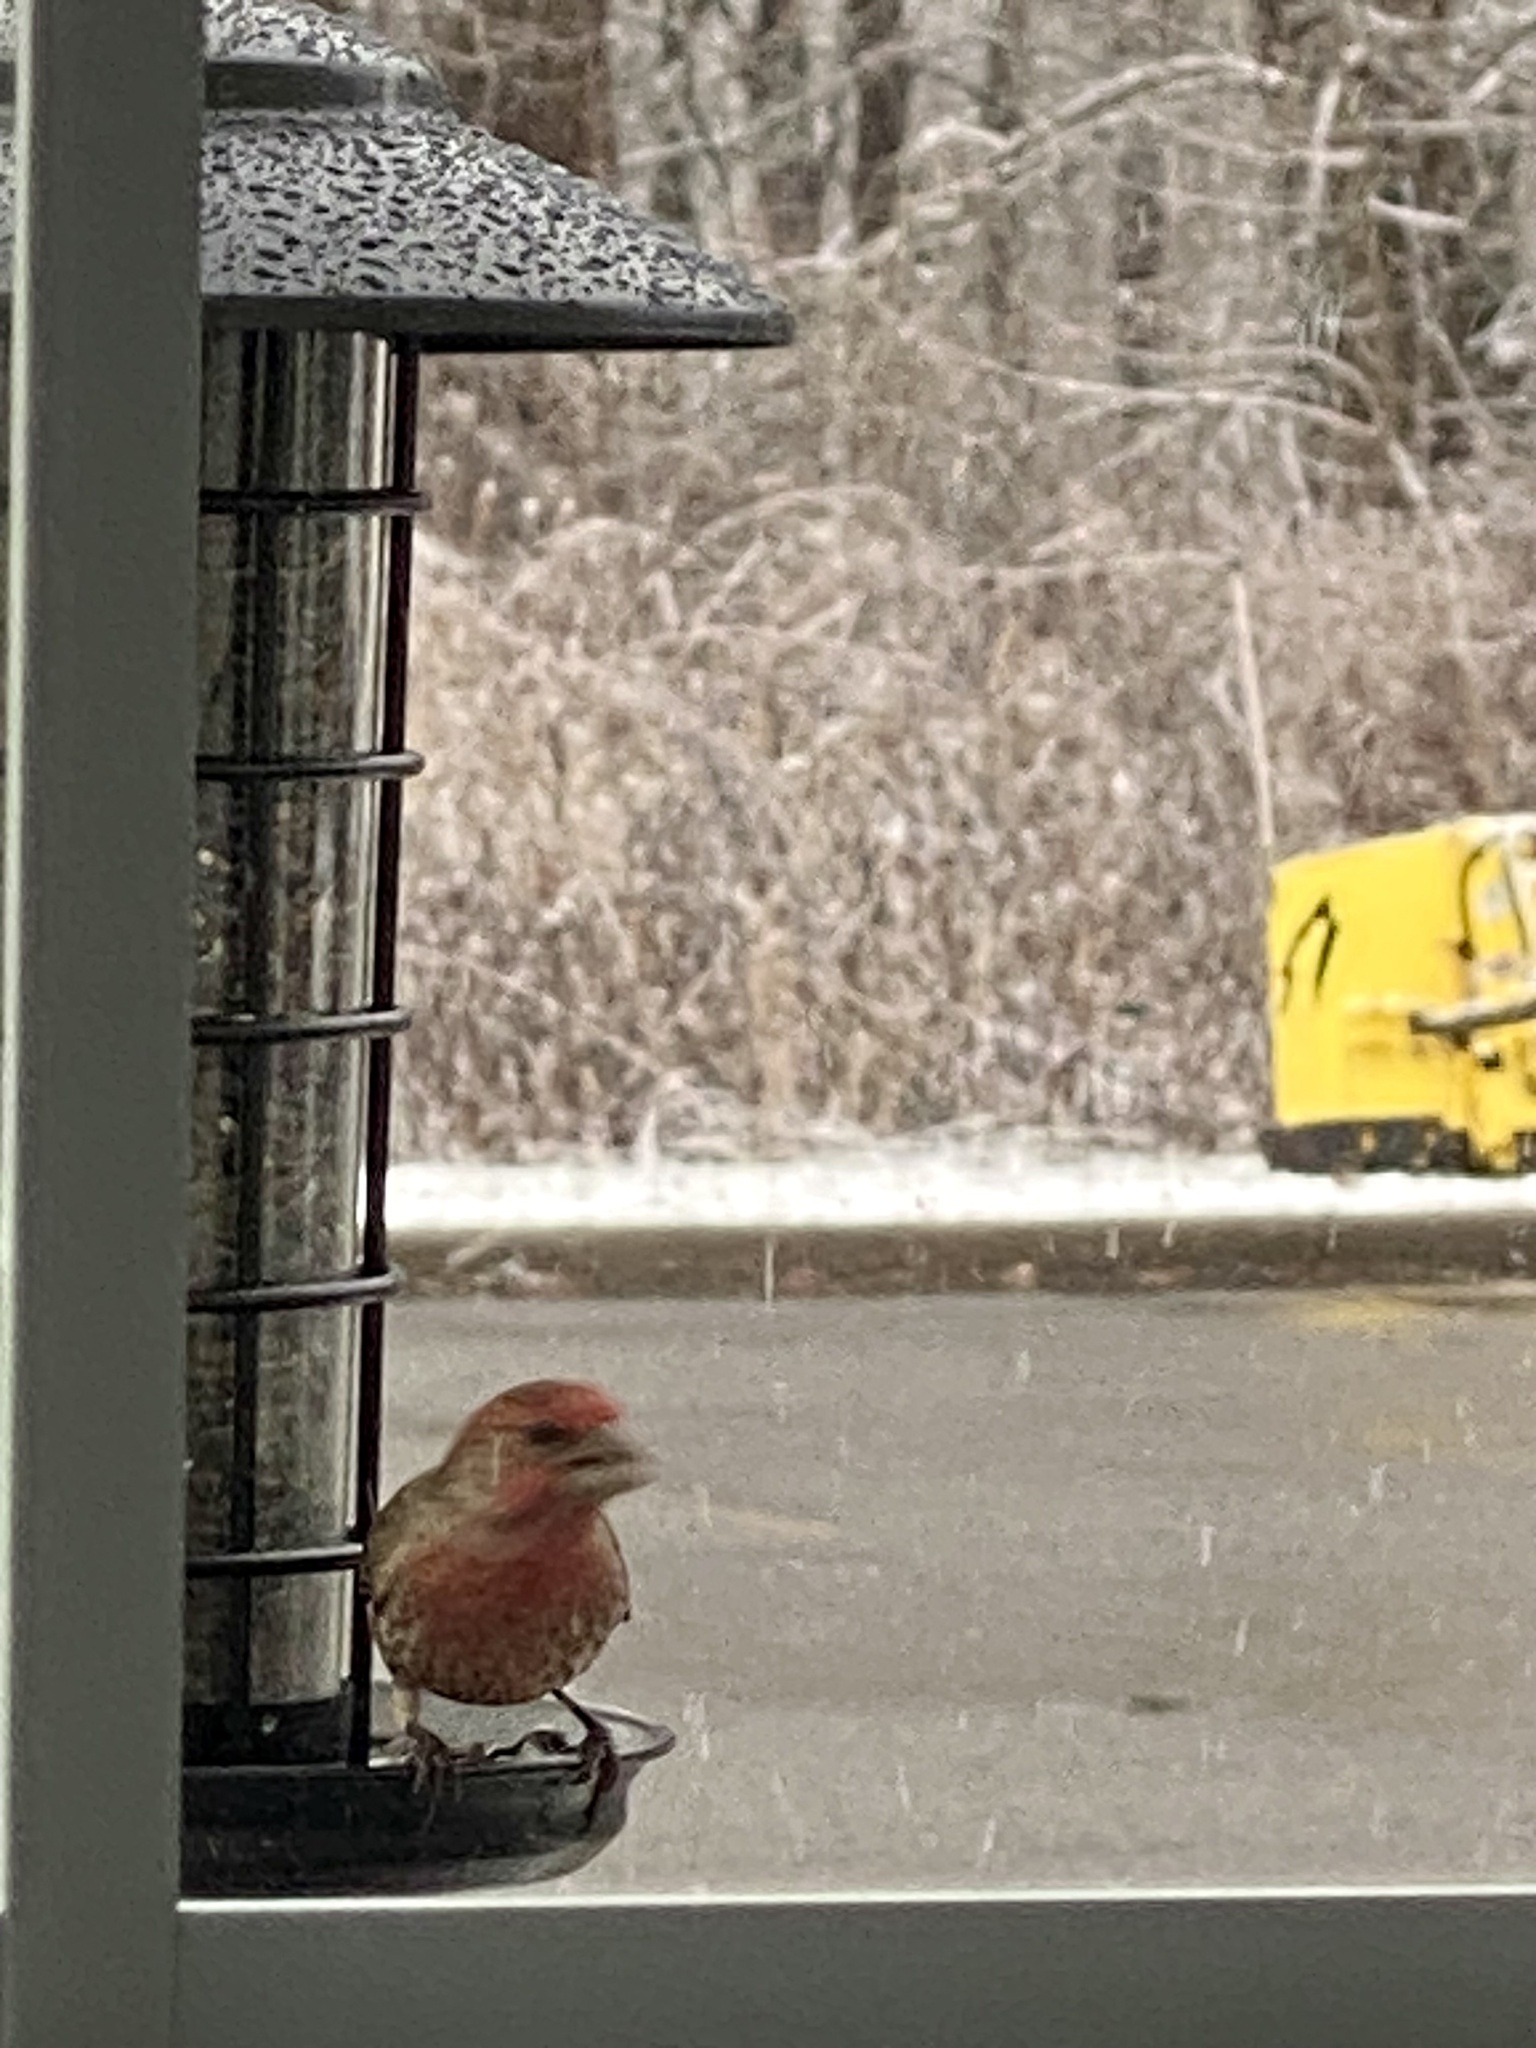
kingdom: Animalia
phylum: Chordata
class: Aves
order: Passeriformes
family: Fringillidae
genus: Haemorhous
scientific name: Haemorhous mexicanus
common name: House finch
